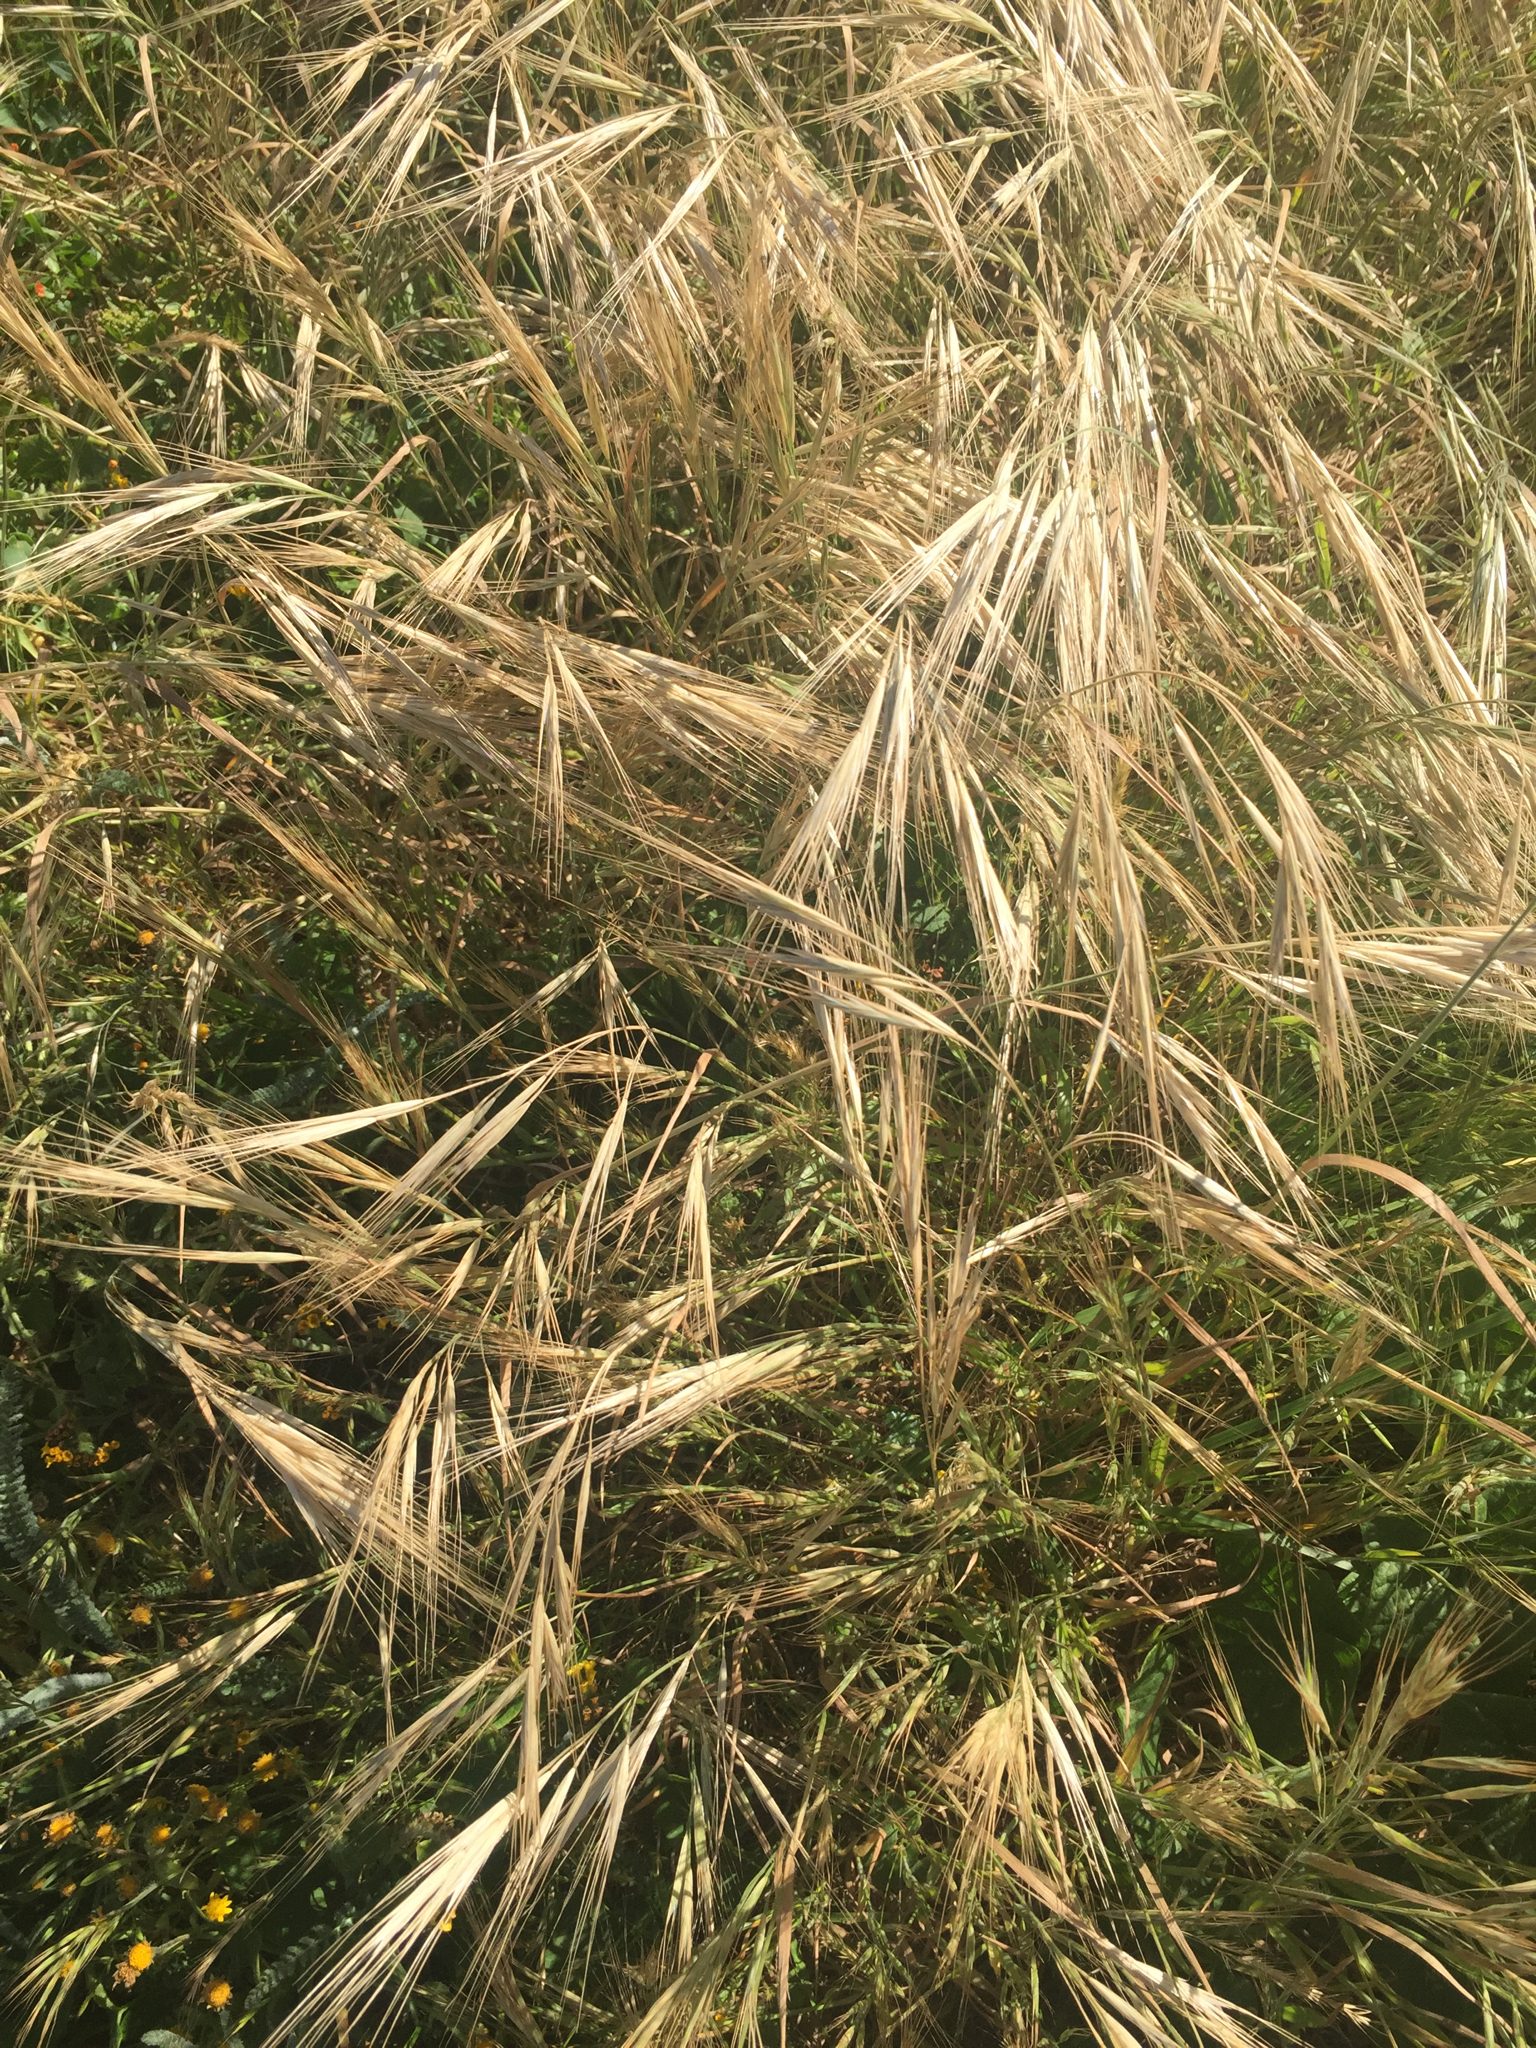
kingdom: Plantae
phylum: Tracheophyta
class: Liliopsida
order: Poales
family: Poaceae
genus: Bromus
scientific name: Bromus diandrus
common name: Ripgut brome
